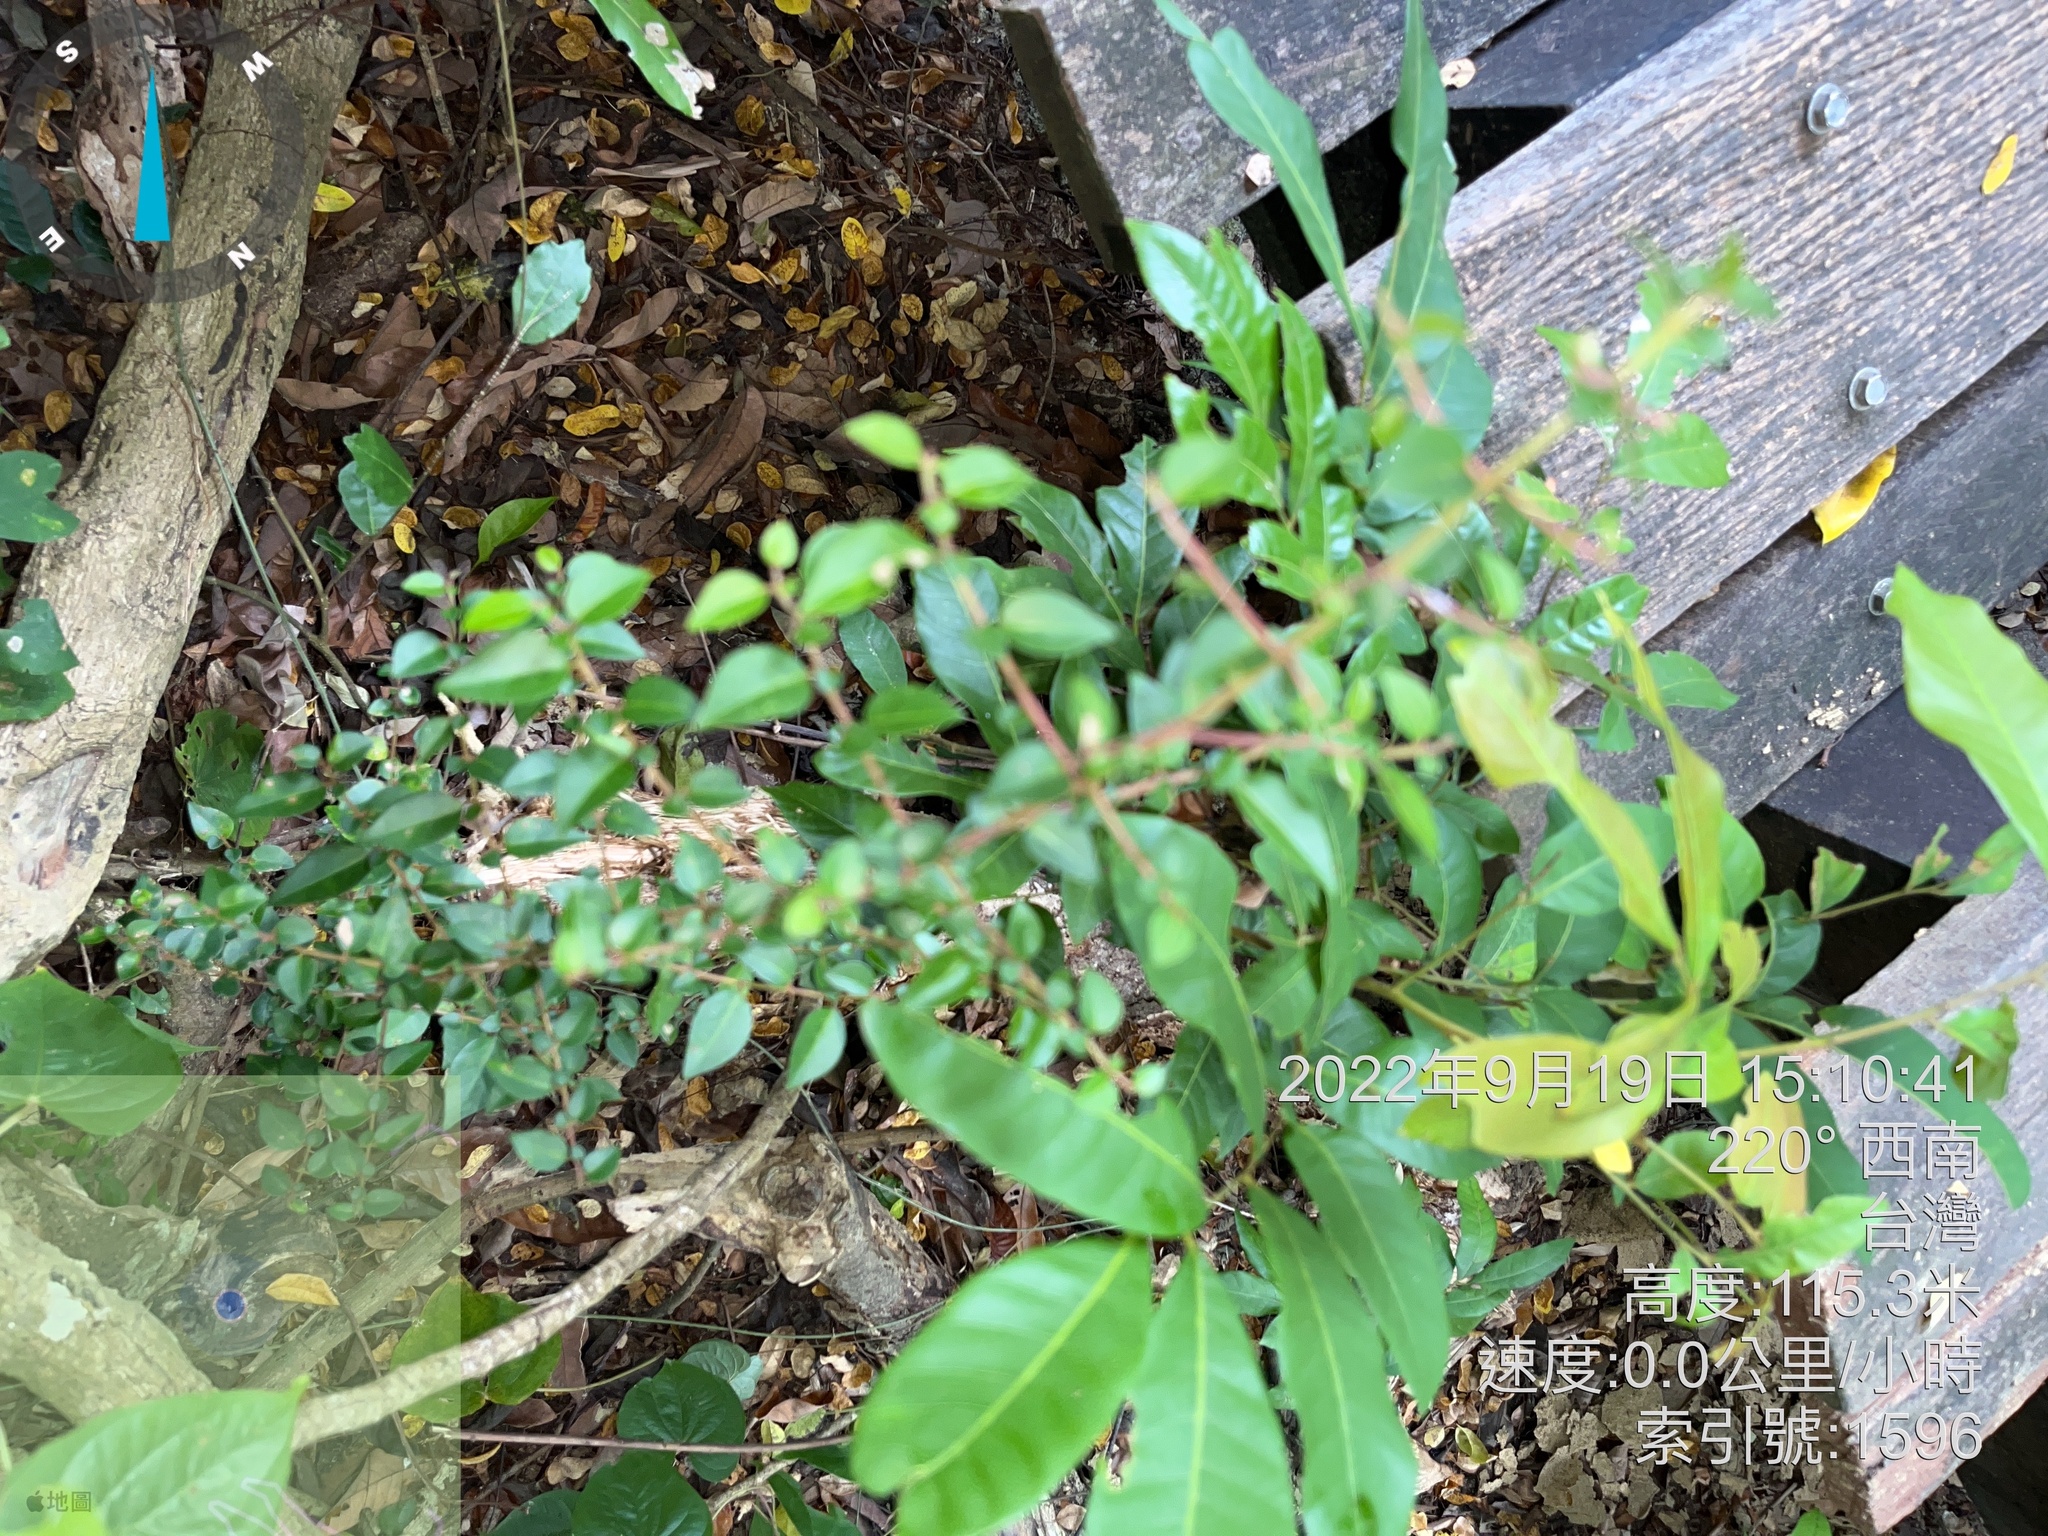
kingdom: Plantae
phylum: Tracheophyta
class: Magnoliopsida
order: Caryophyllales
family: Nyctaginaceae
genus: Pisonia
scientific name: Pisonia aculeata
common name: Cockspur vine
